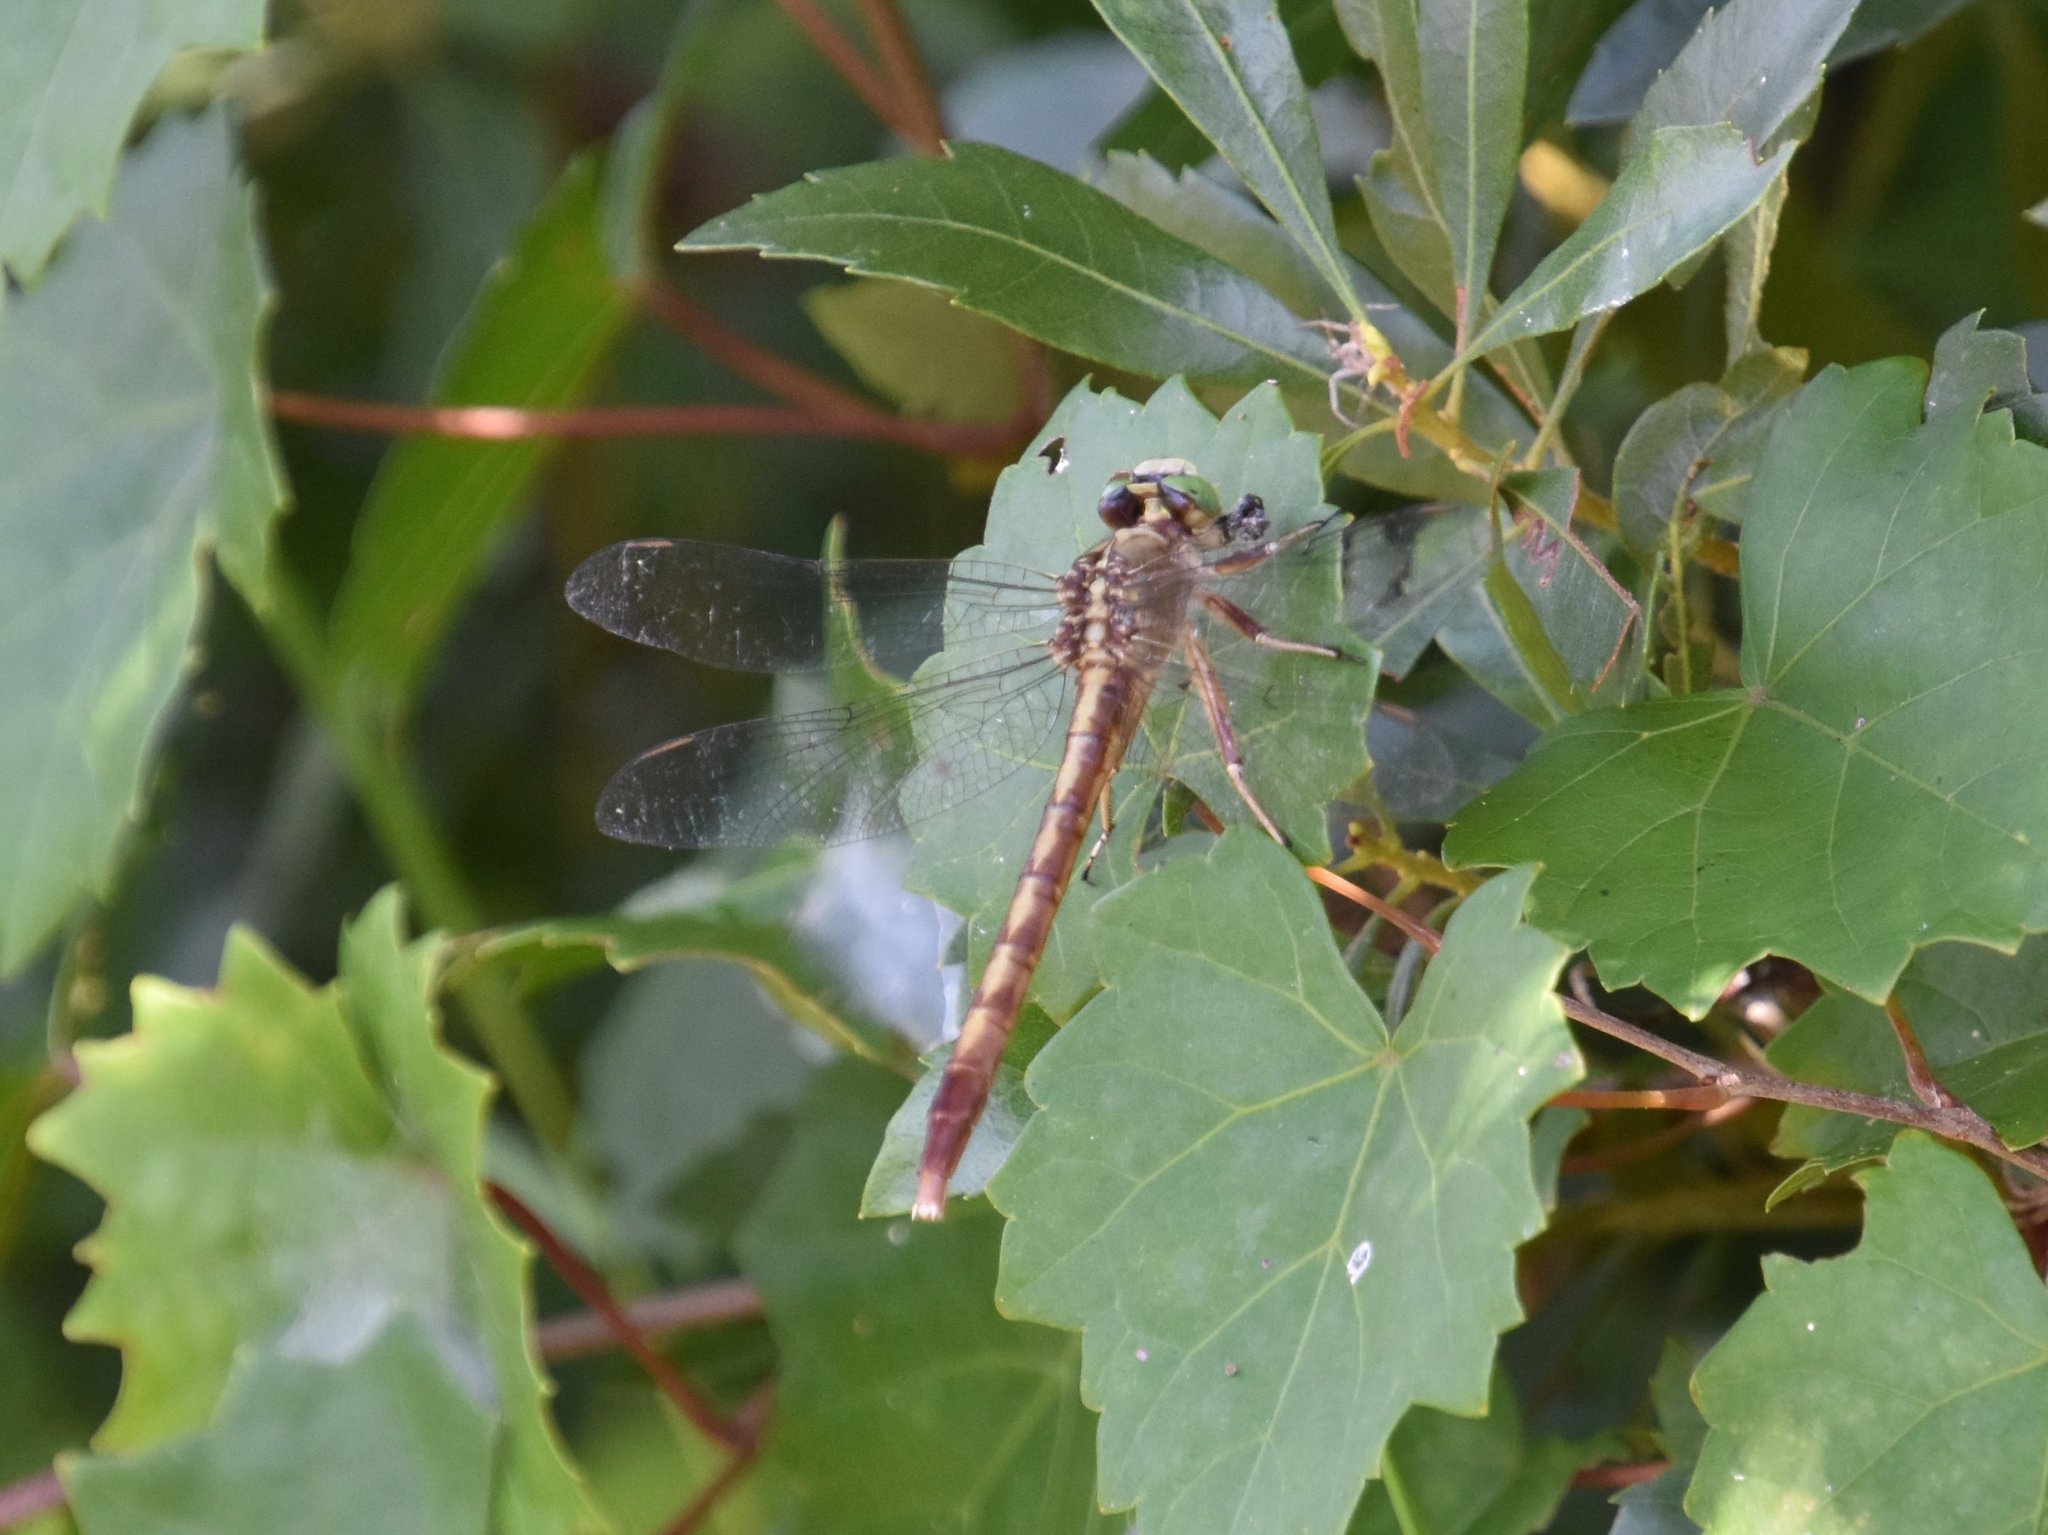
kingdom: Animalia
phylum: Arthropoda
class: Insecta
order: Odonata
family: Gomphidae
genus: Arigomphus
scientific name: Arigomphus pallidus
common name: Gray-green clubtail
